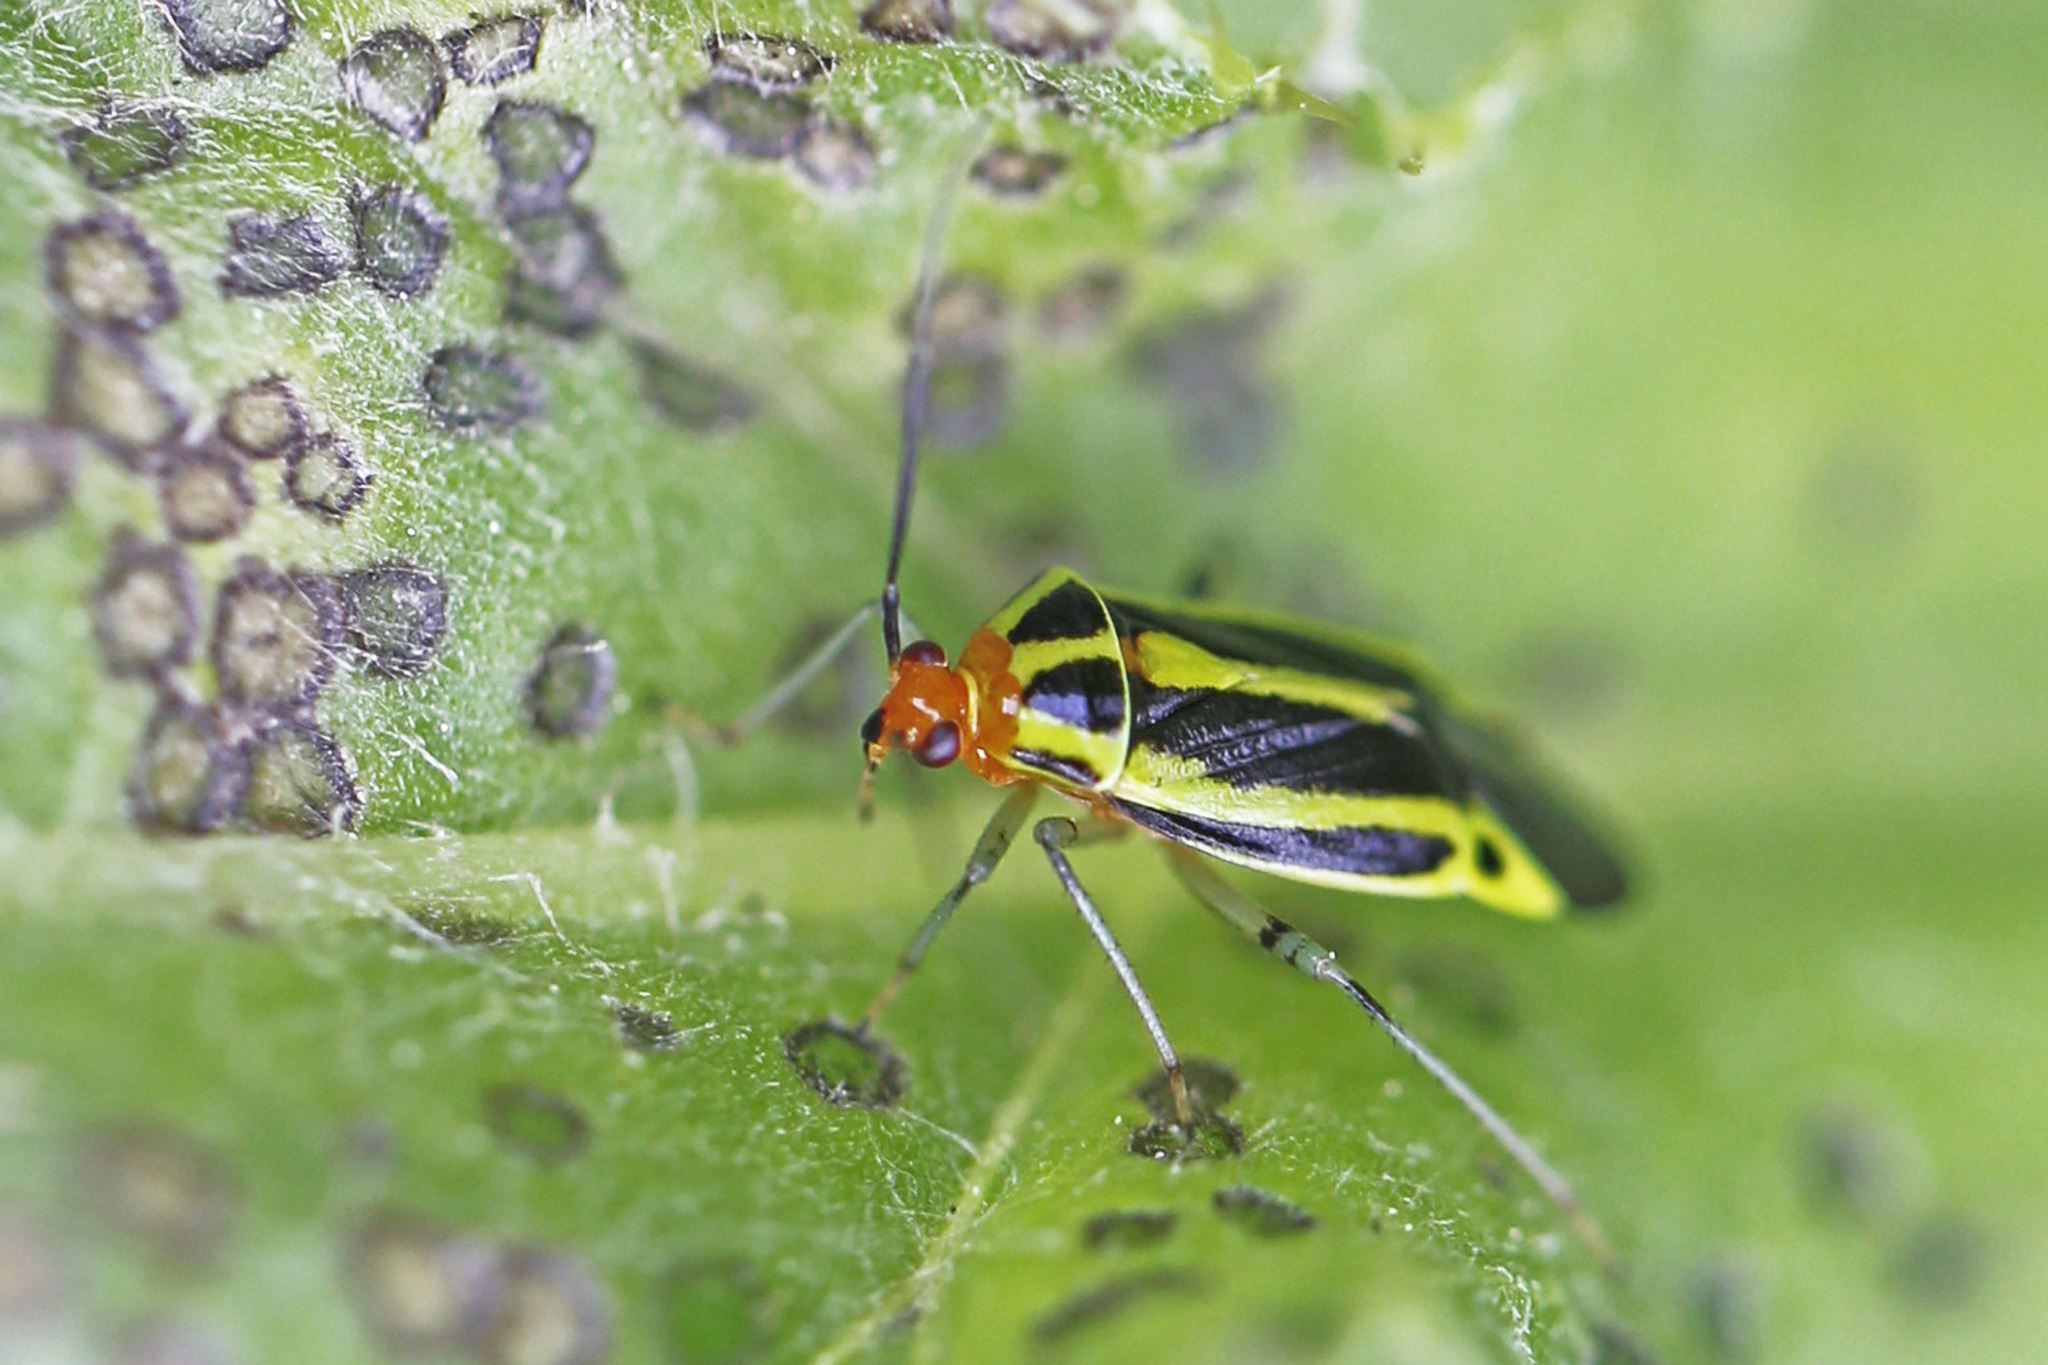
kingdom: Animalia
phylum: Arthropoda
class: Insecta
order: Hemiptera
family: Miridae
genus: Poecilocapsus
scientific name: Poecilocapsus lineatus
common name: Four-lined plant bug
